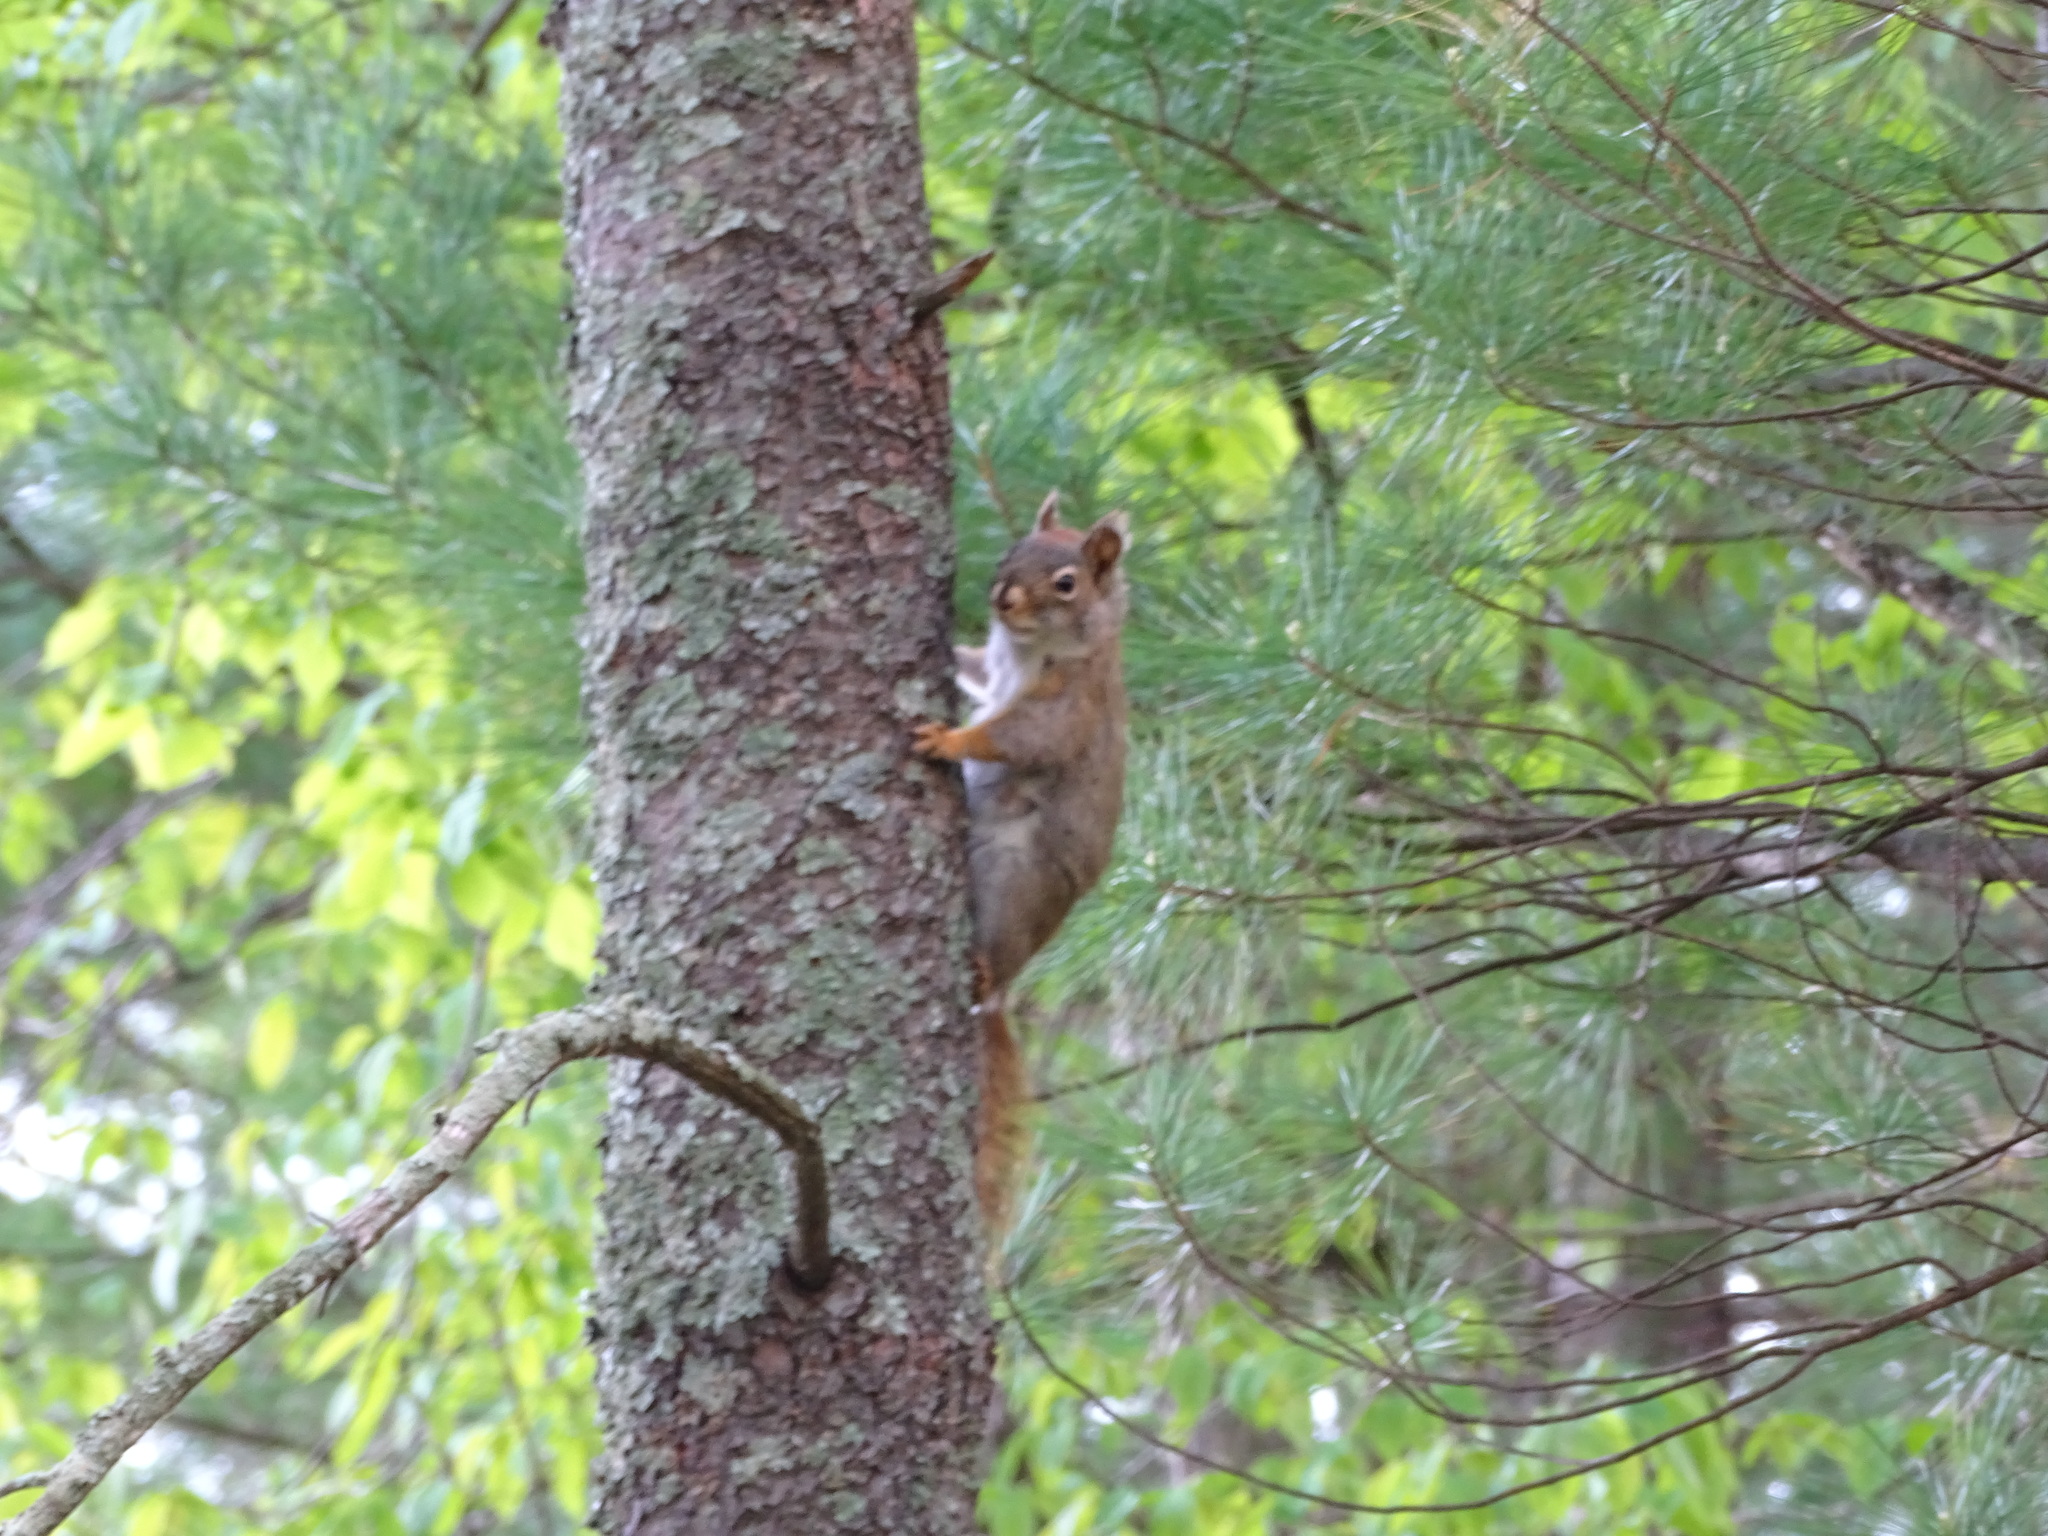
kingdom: Animalia
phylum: Chordata
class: Mammalia
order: Rodentia
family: Sciuridae
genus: Tamiasciurus
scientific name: Tamiasciurus hudsonicus
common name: Red squirrel
